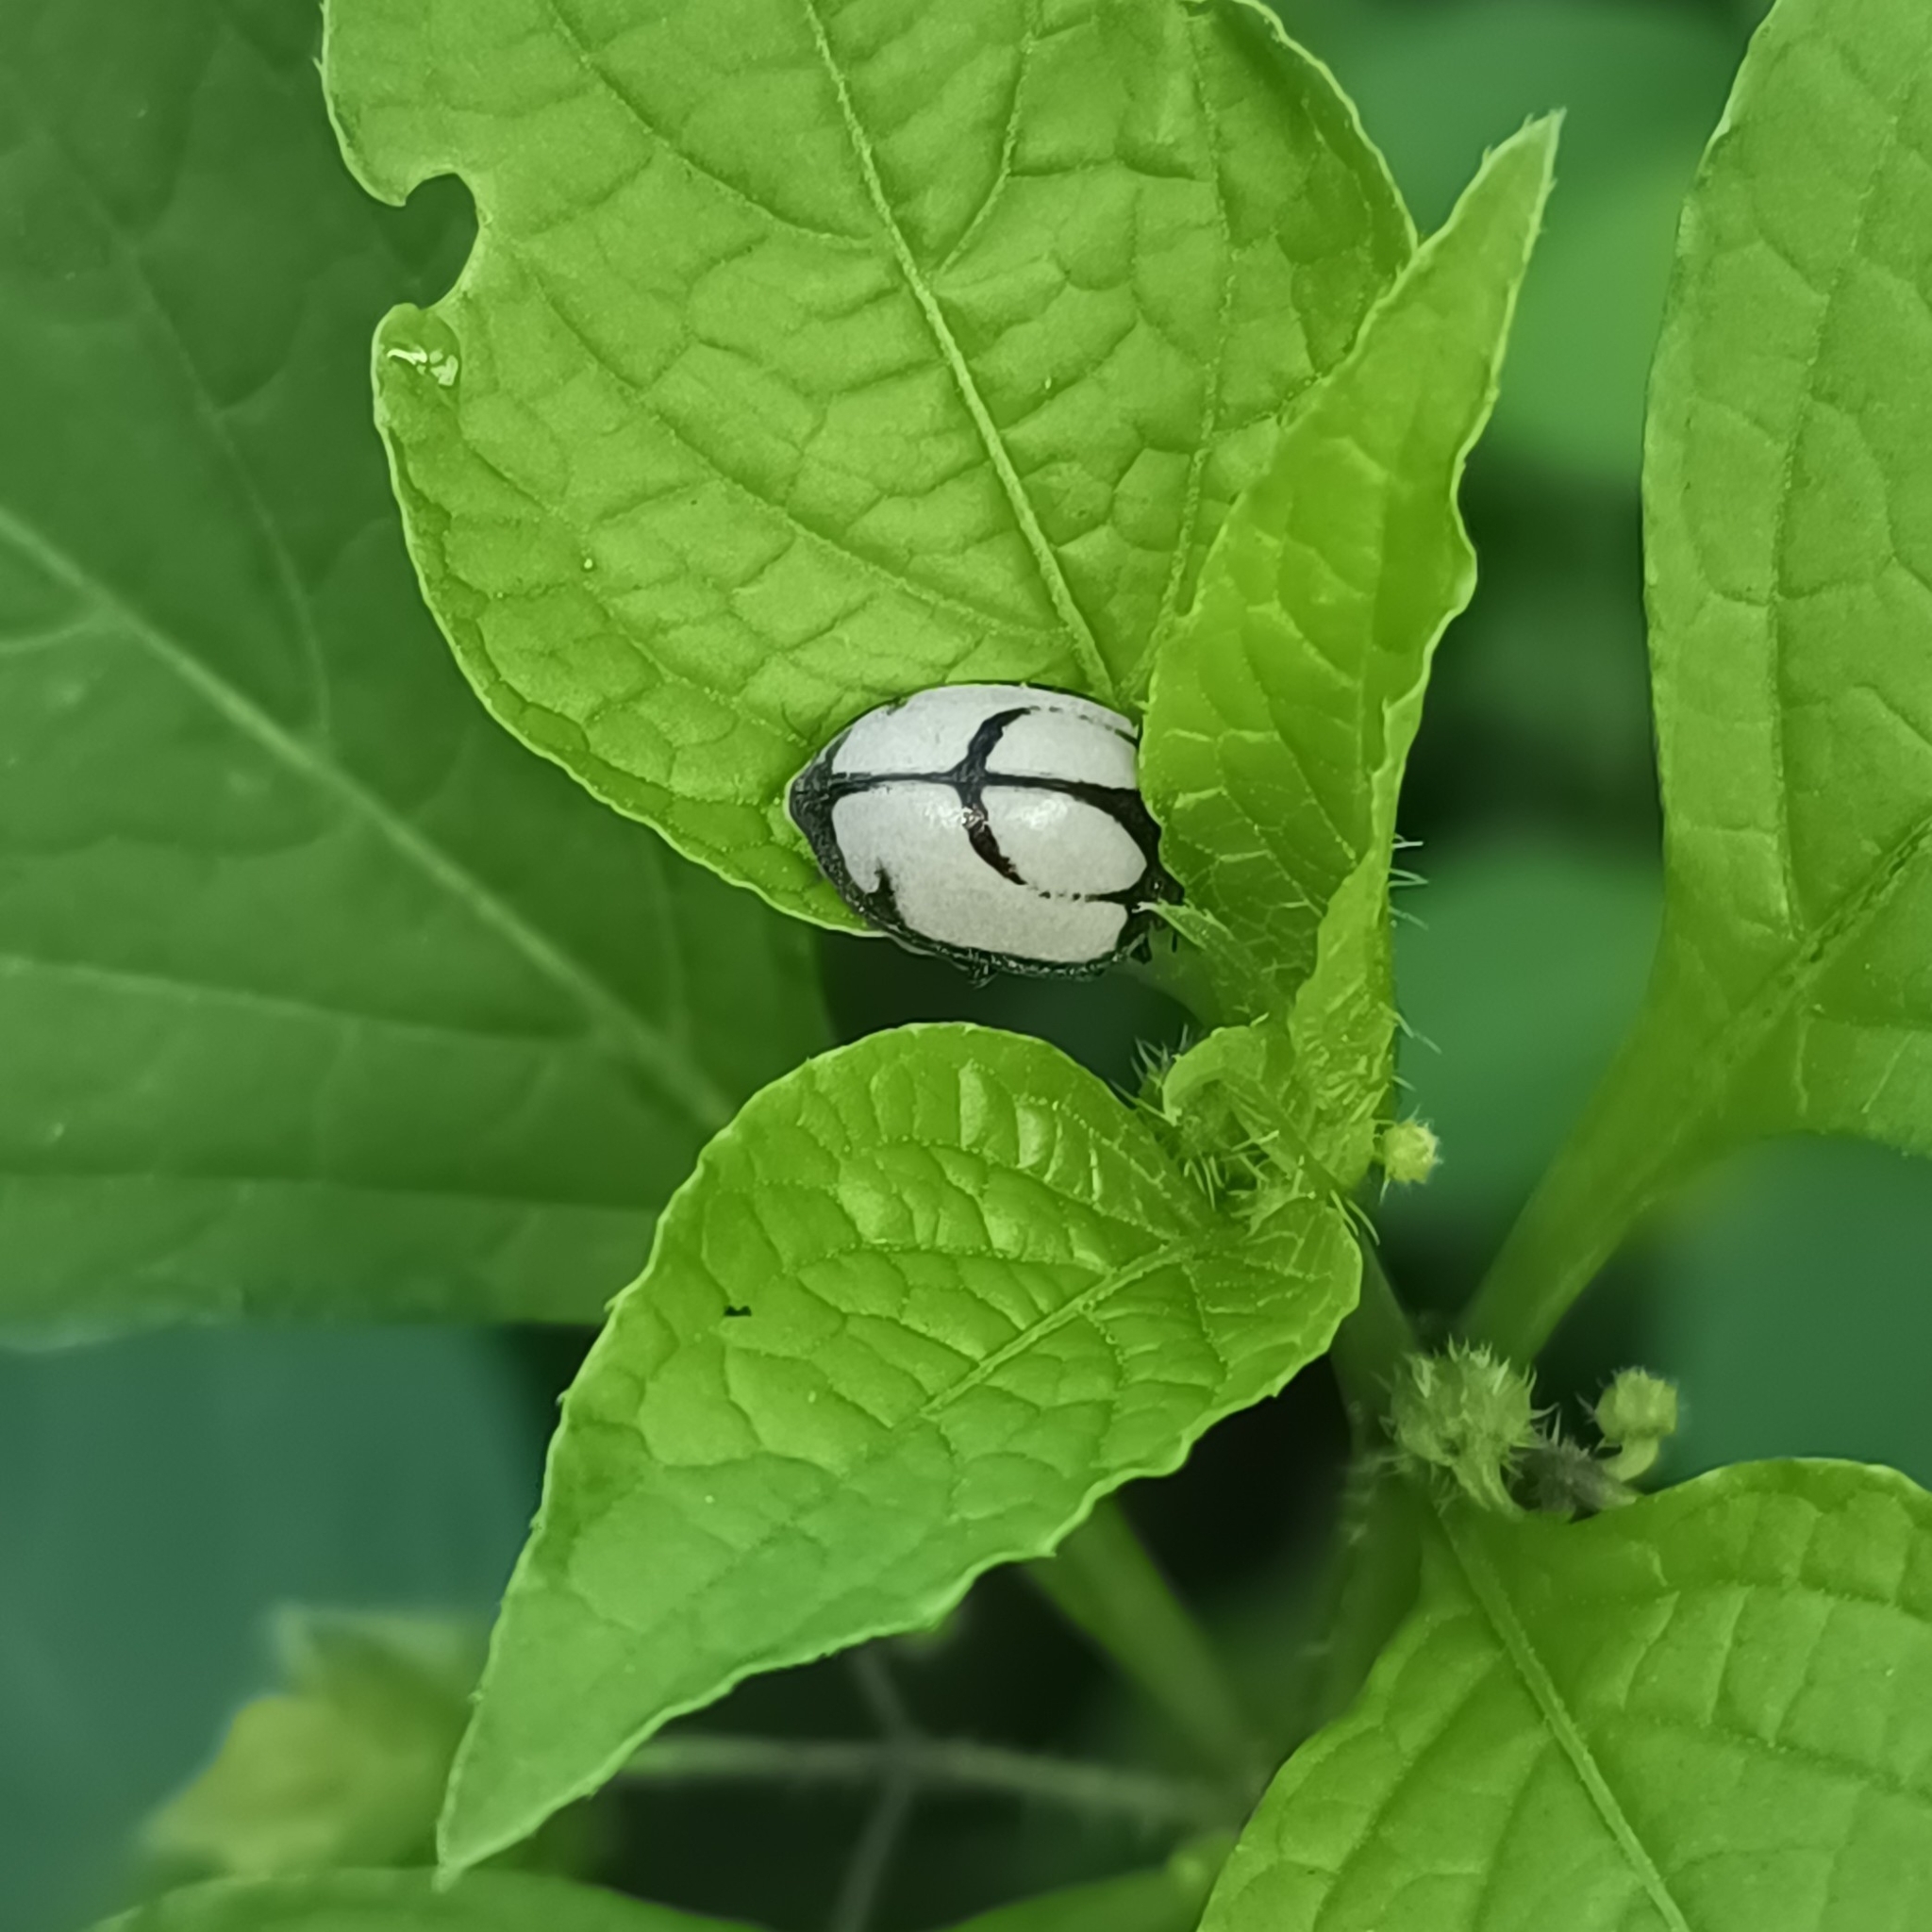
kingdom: Animalia
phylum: Arthropoda
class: Insecta
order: Coleoptera
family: Coccinellidae
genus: Epilachna
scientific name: Epilachna
